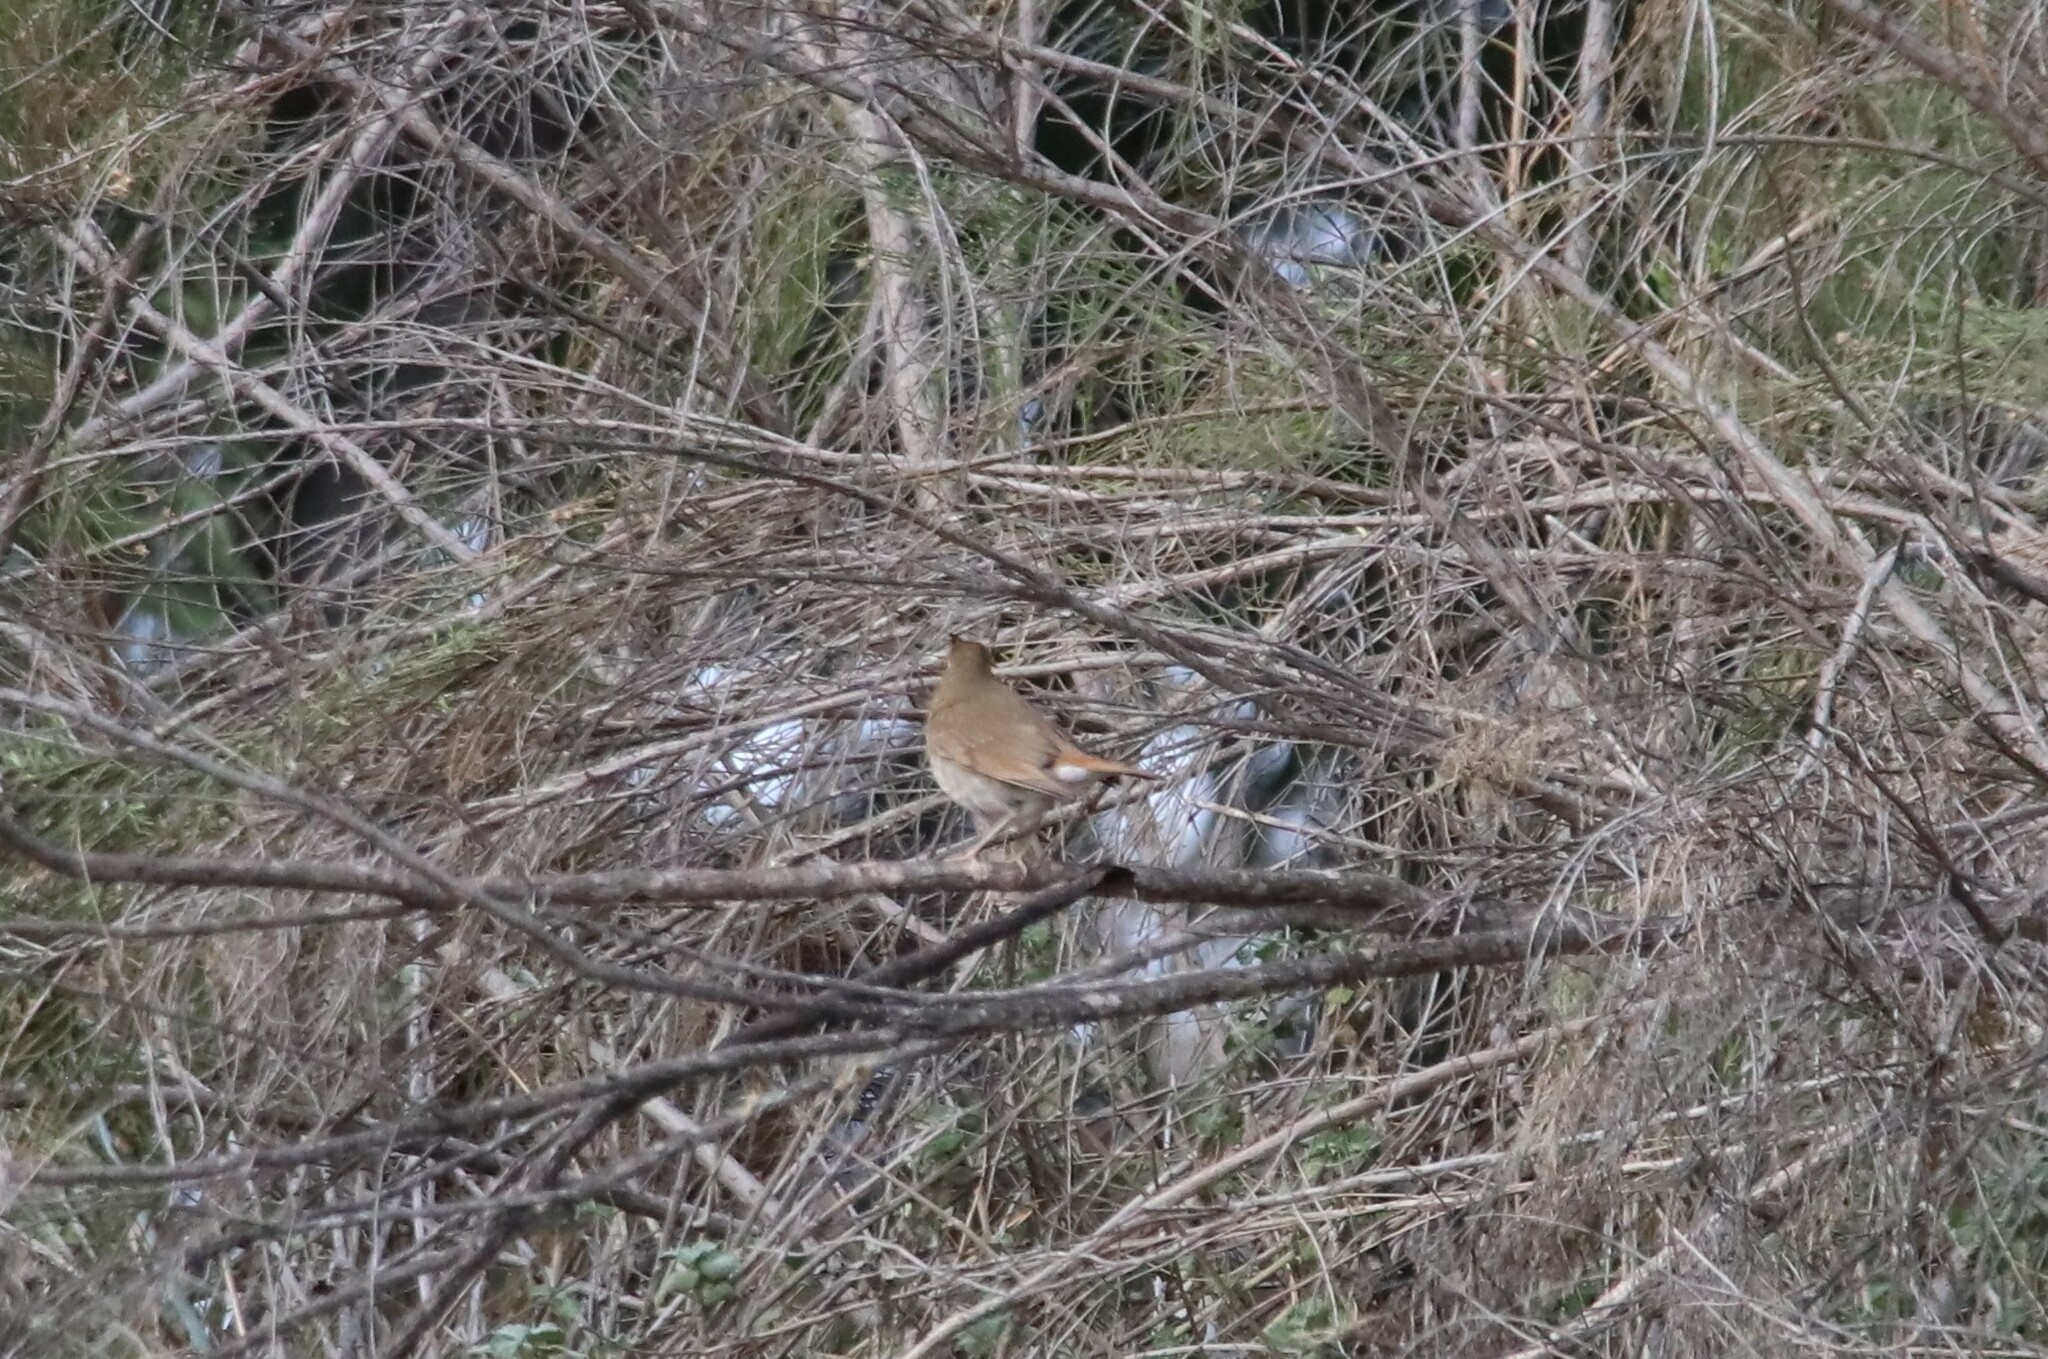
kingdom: Animalia
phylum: Chordata
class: Aves
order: Passeriformes
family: Turdidae
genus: Catharus
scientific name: Catharus guttatus
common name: Hermit thrush
